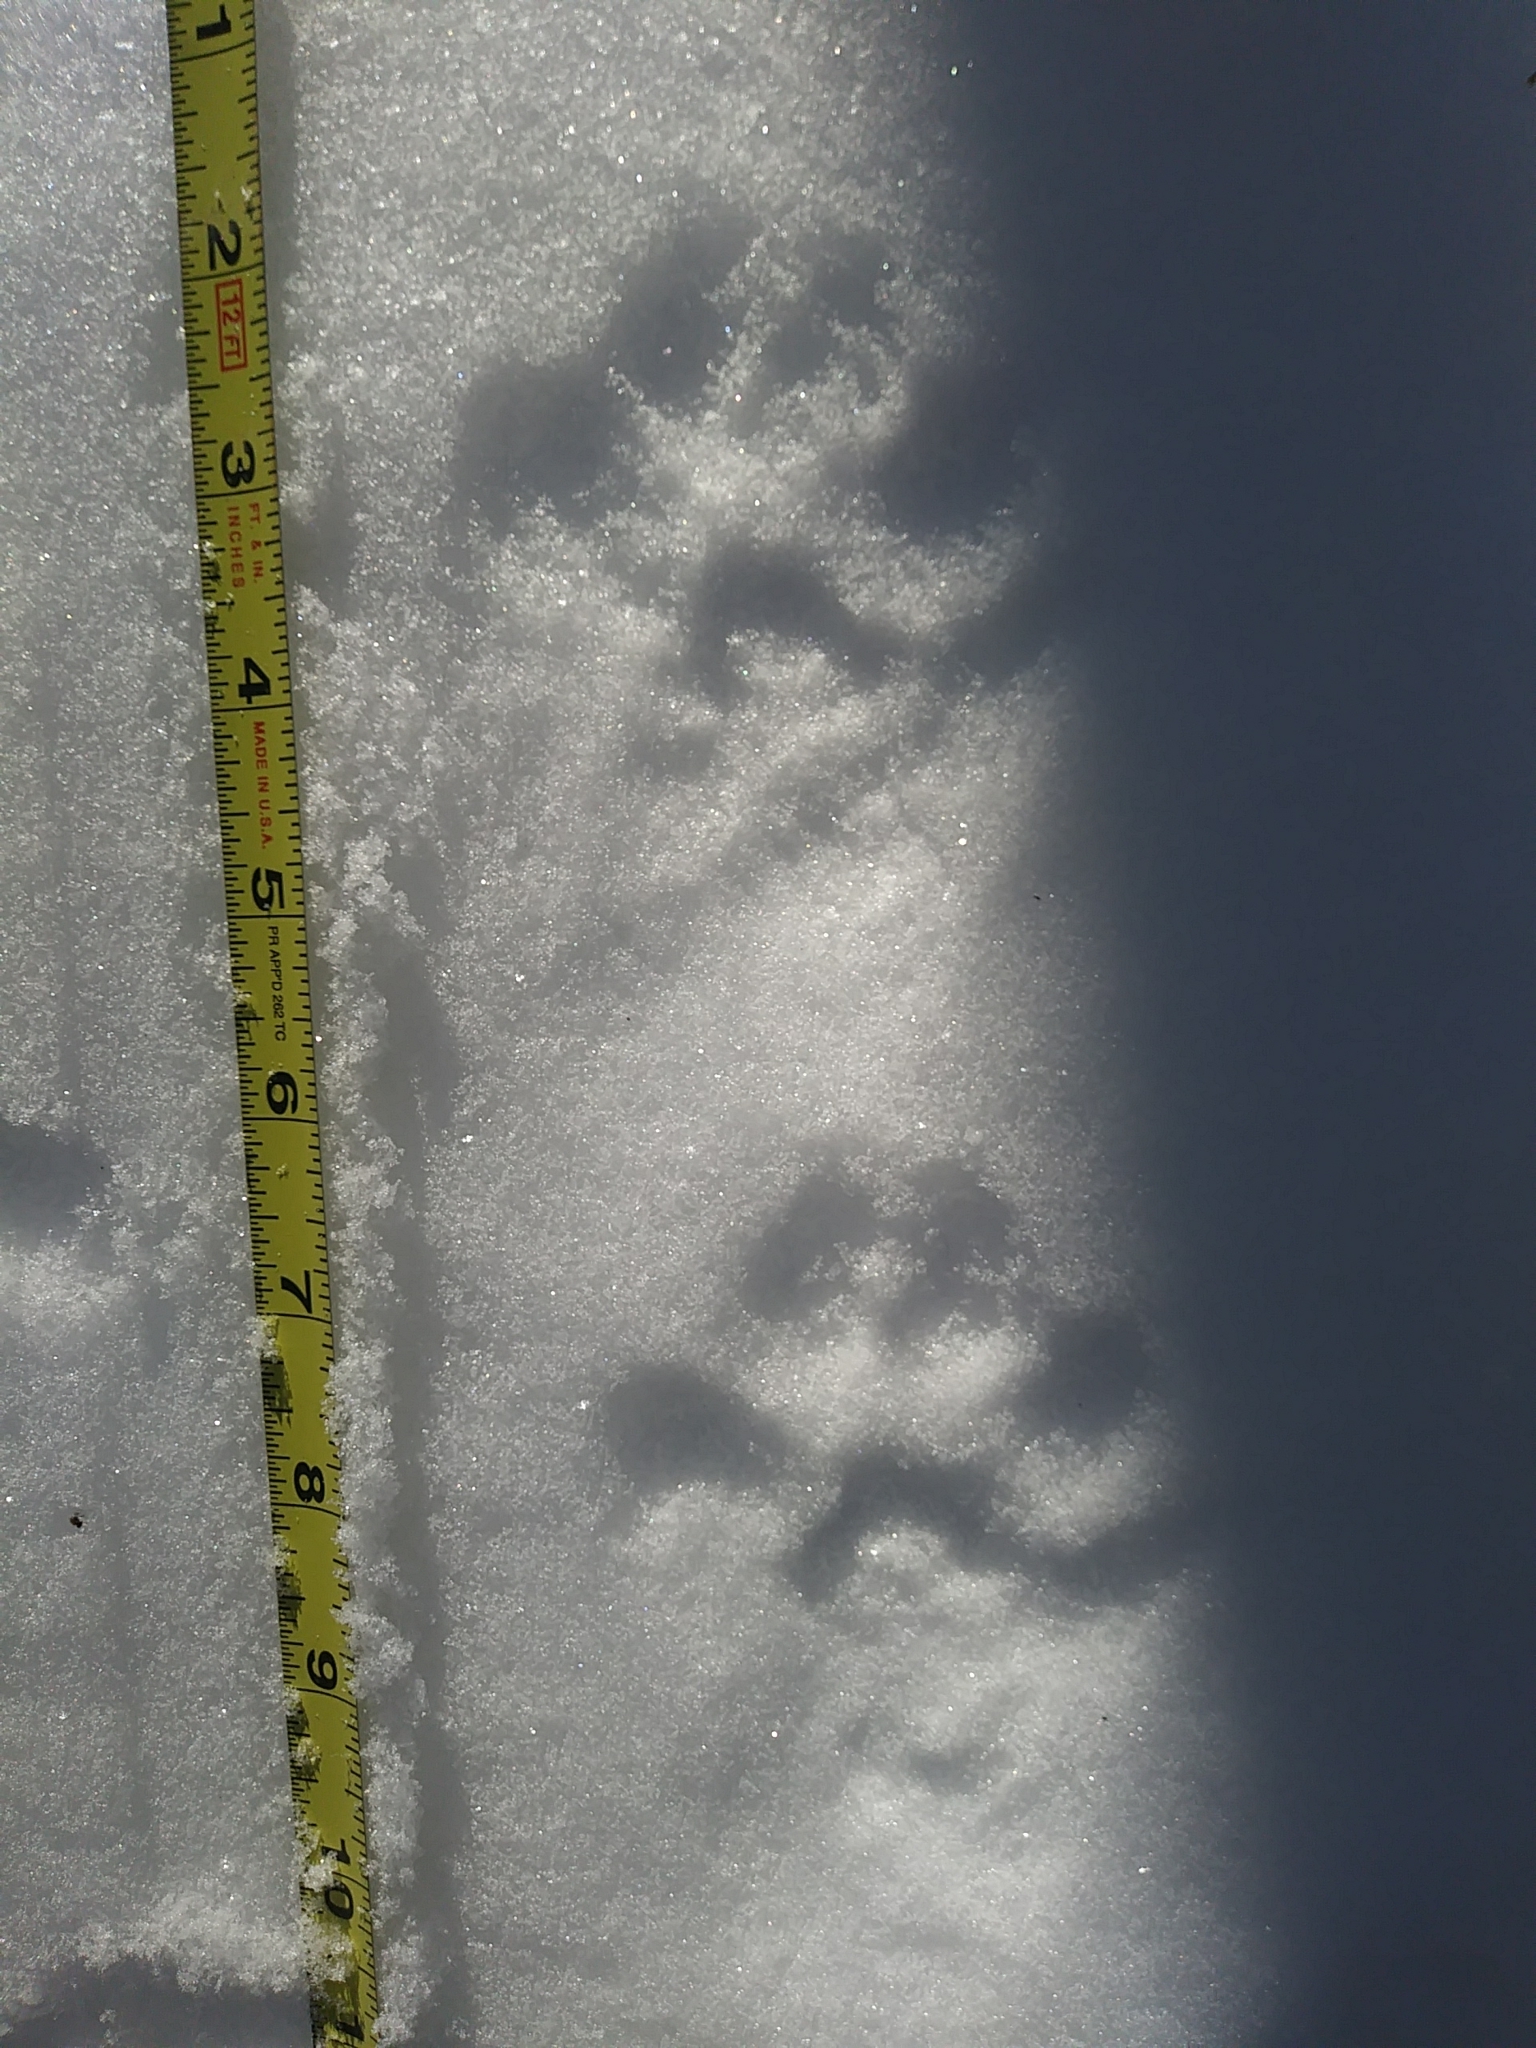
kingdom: Animalia
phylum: Chordata
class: Mammalia
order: Carnivora
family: Mustelidae
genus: Pekania
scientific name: Pekania pennanti
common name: Fisher
